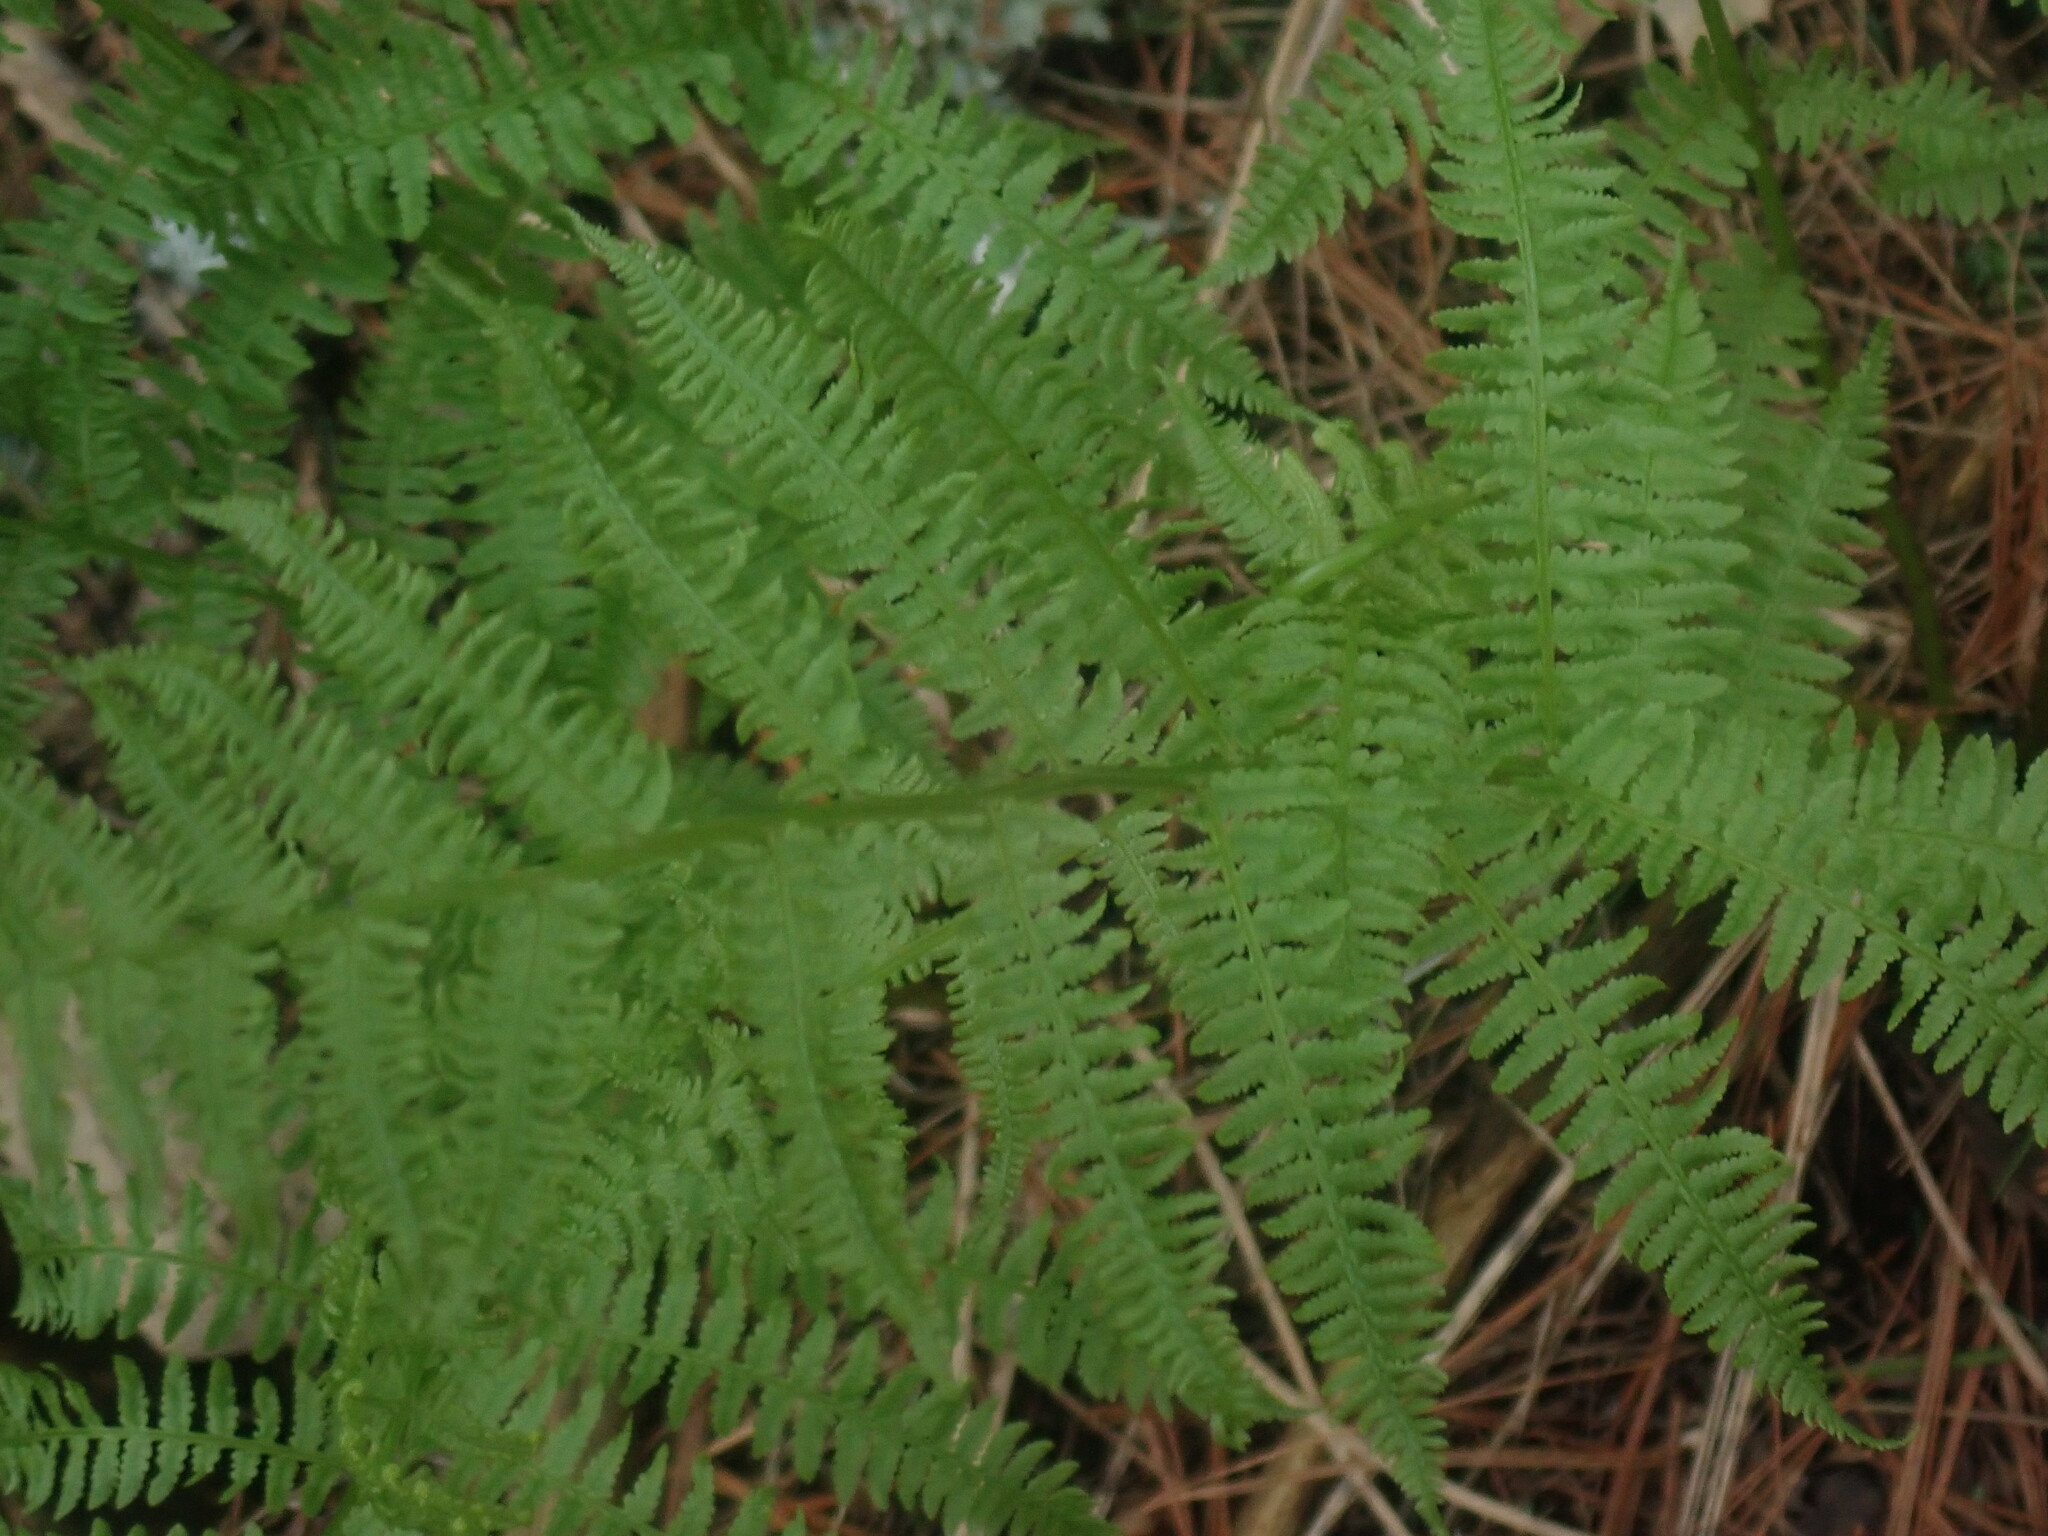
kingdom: Plantae
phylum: Tracheophyta
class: Polypodiopsida
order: Polypodiales
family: Athyriaceae
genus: Athyrium
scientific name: Athyrium angustum
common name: Northern lady fern
